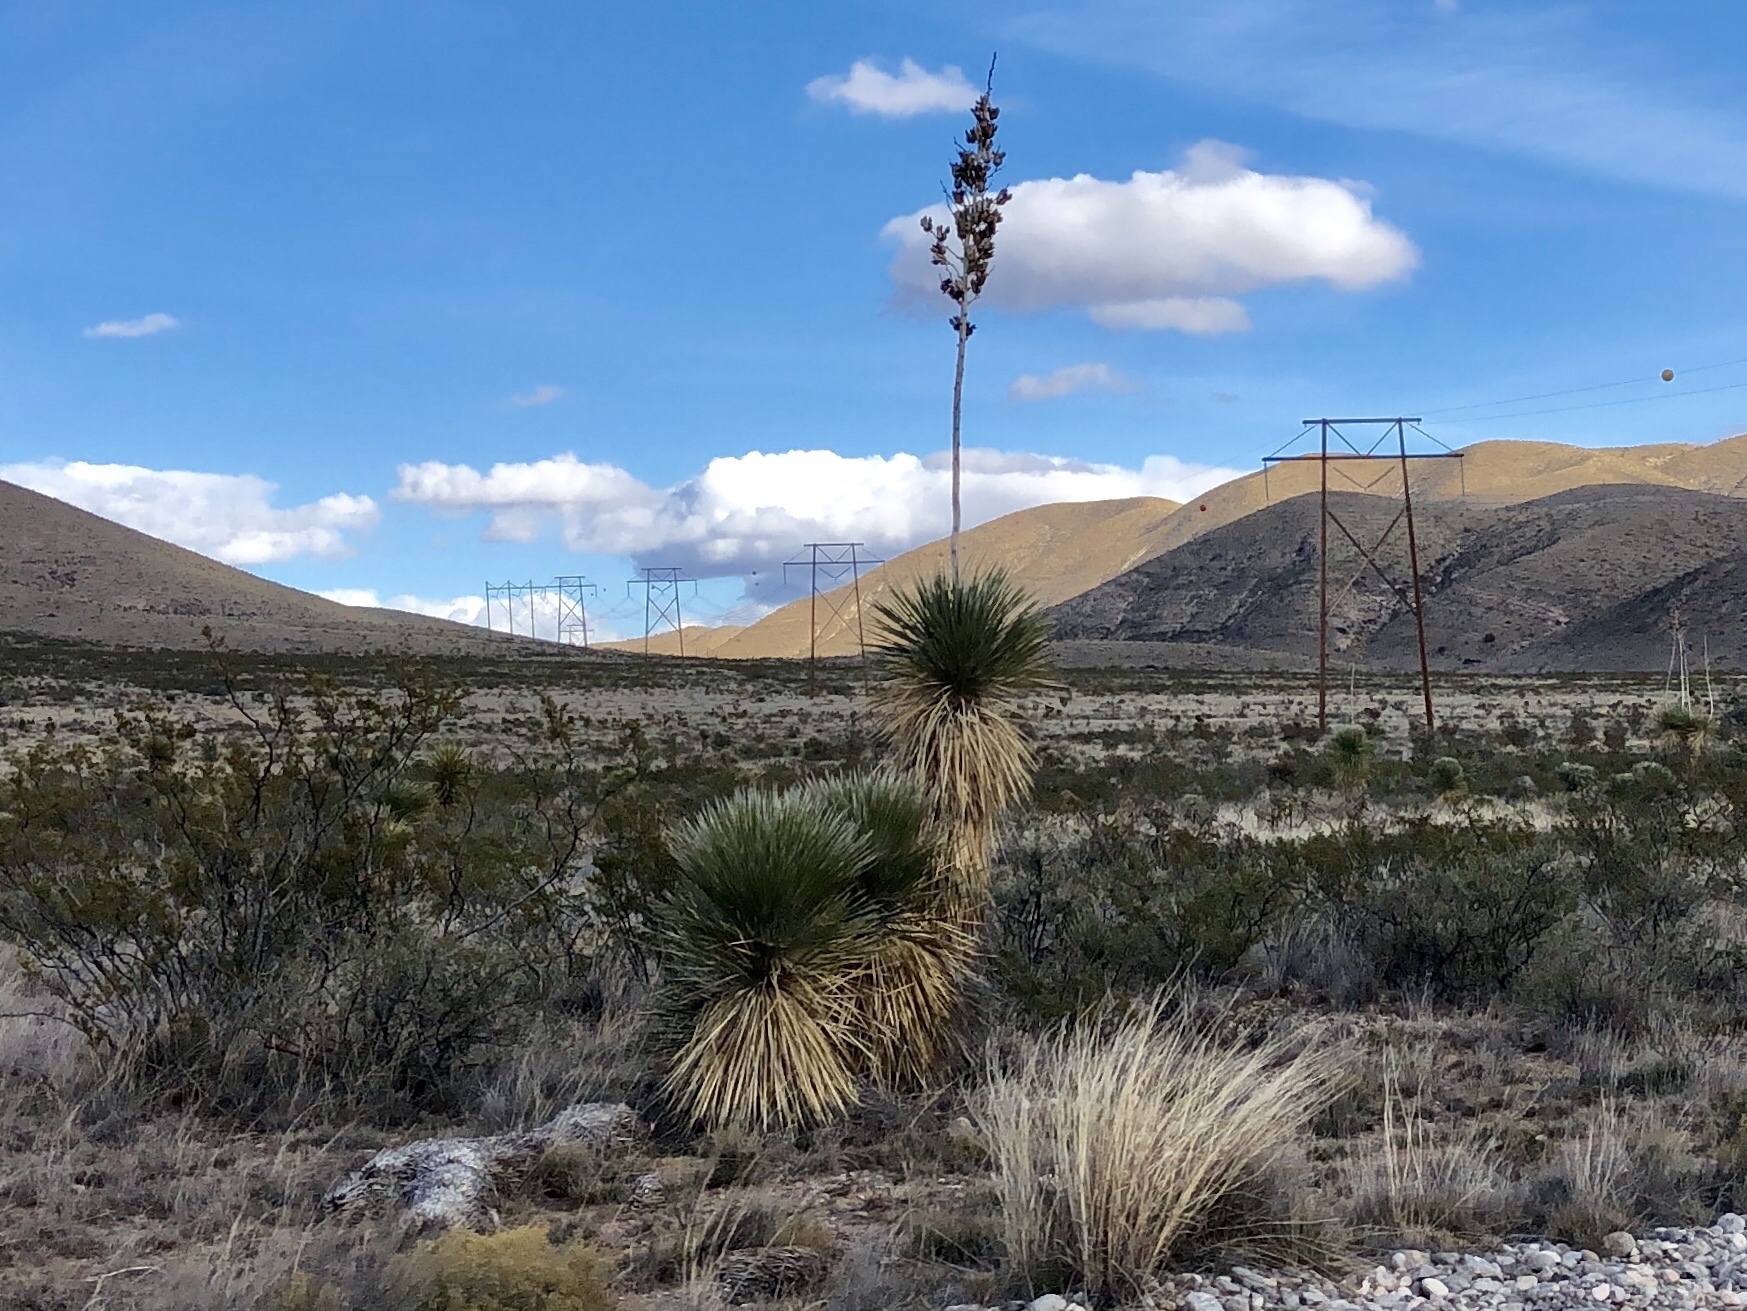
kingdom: Plantae
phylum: Tracheophyta
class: Liliopsida
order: Asparagales
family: Asparagaceae
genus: Yucca
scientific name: Yucca elata
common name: Palmella
